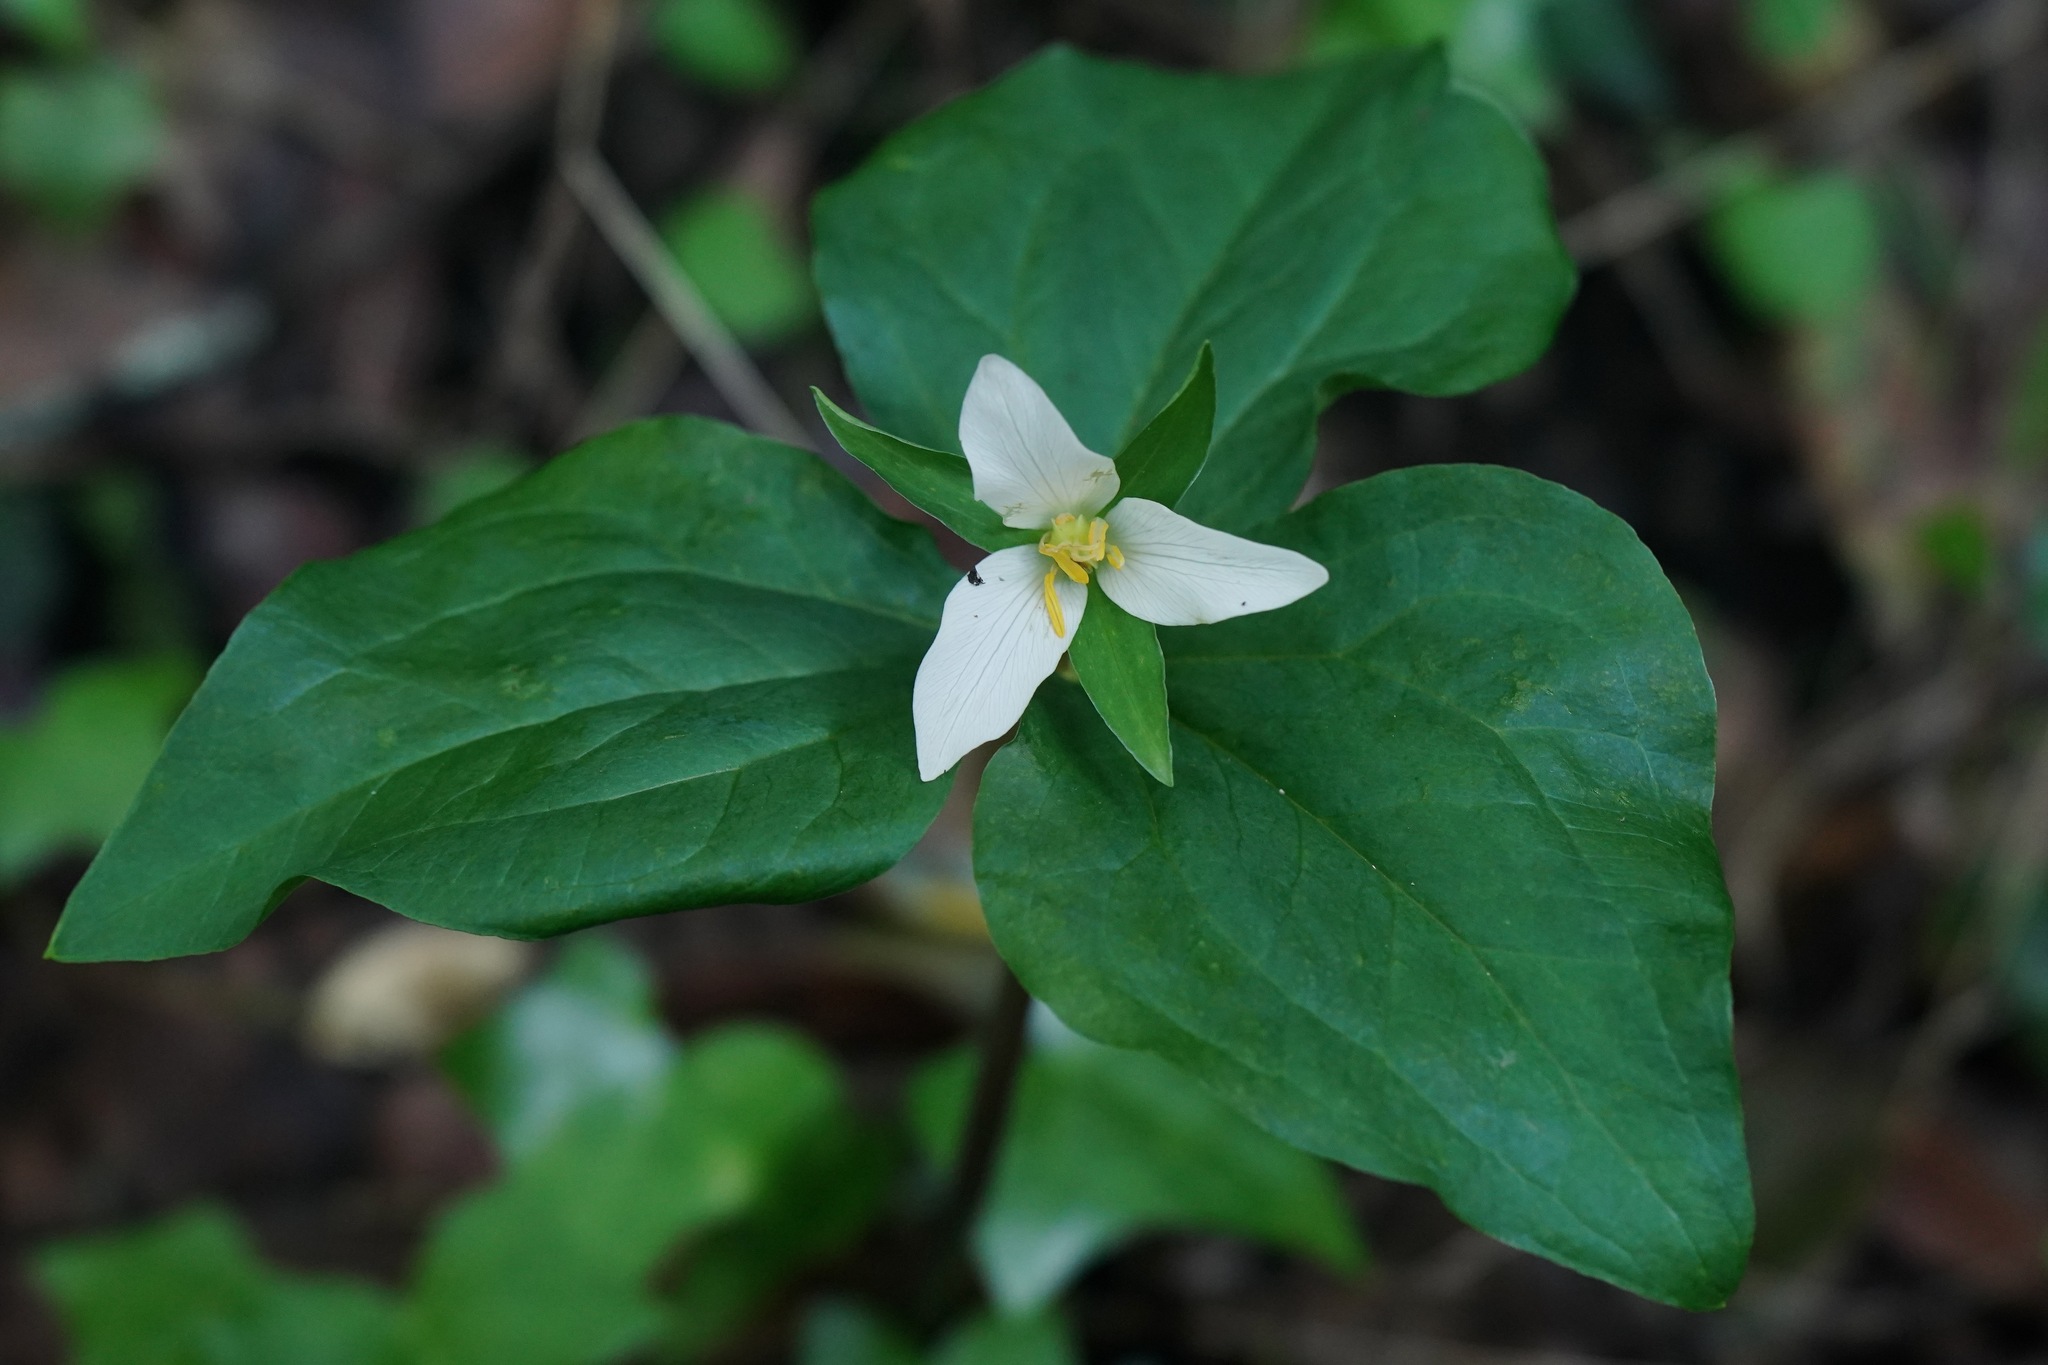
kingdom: Plantae
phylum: Tracheophyta
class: Liliopsida
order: Liliales
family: Melanthiaceae
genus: Trillium
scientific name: Trillium ovatum
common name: Pacific trillium
